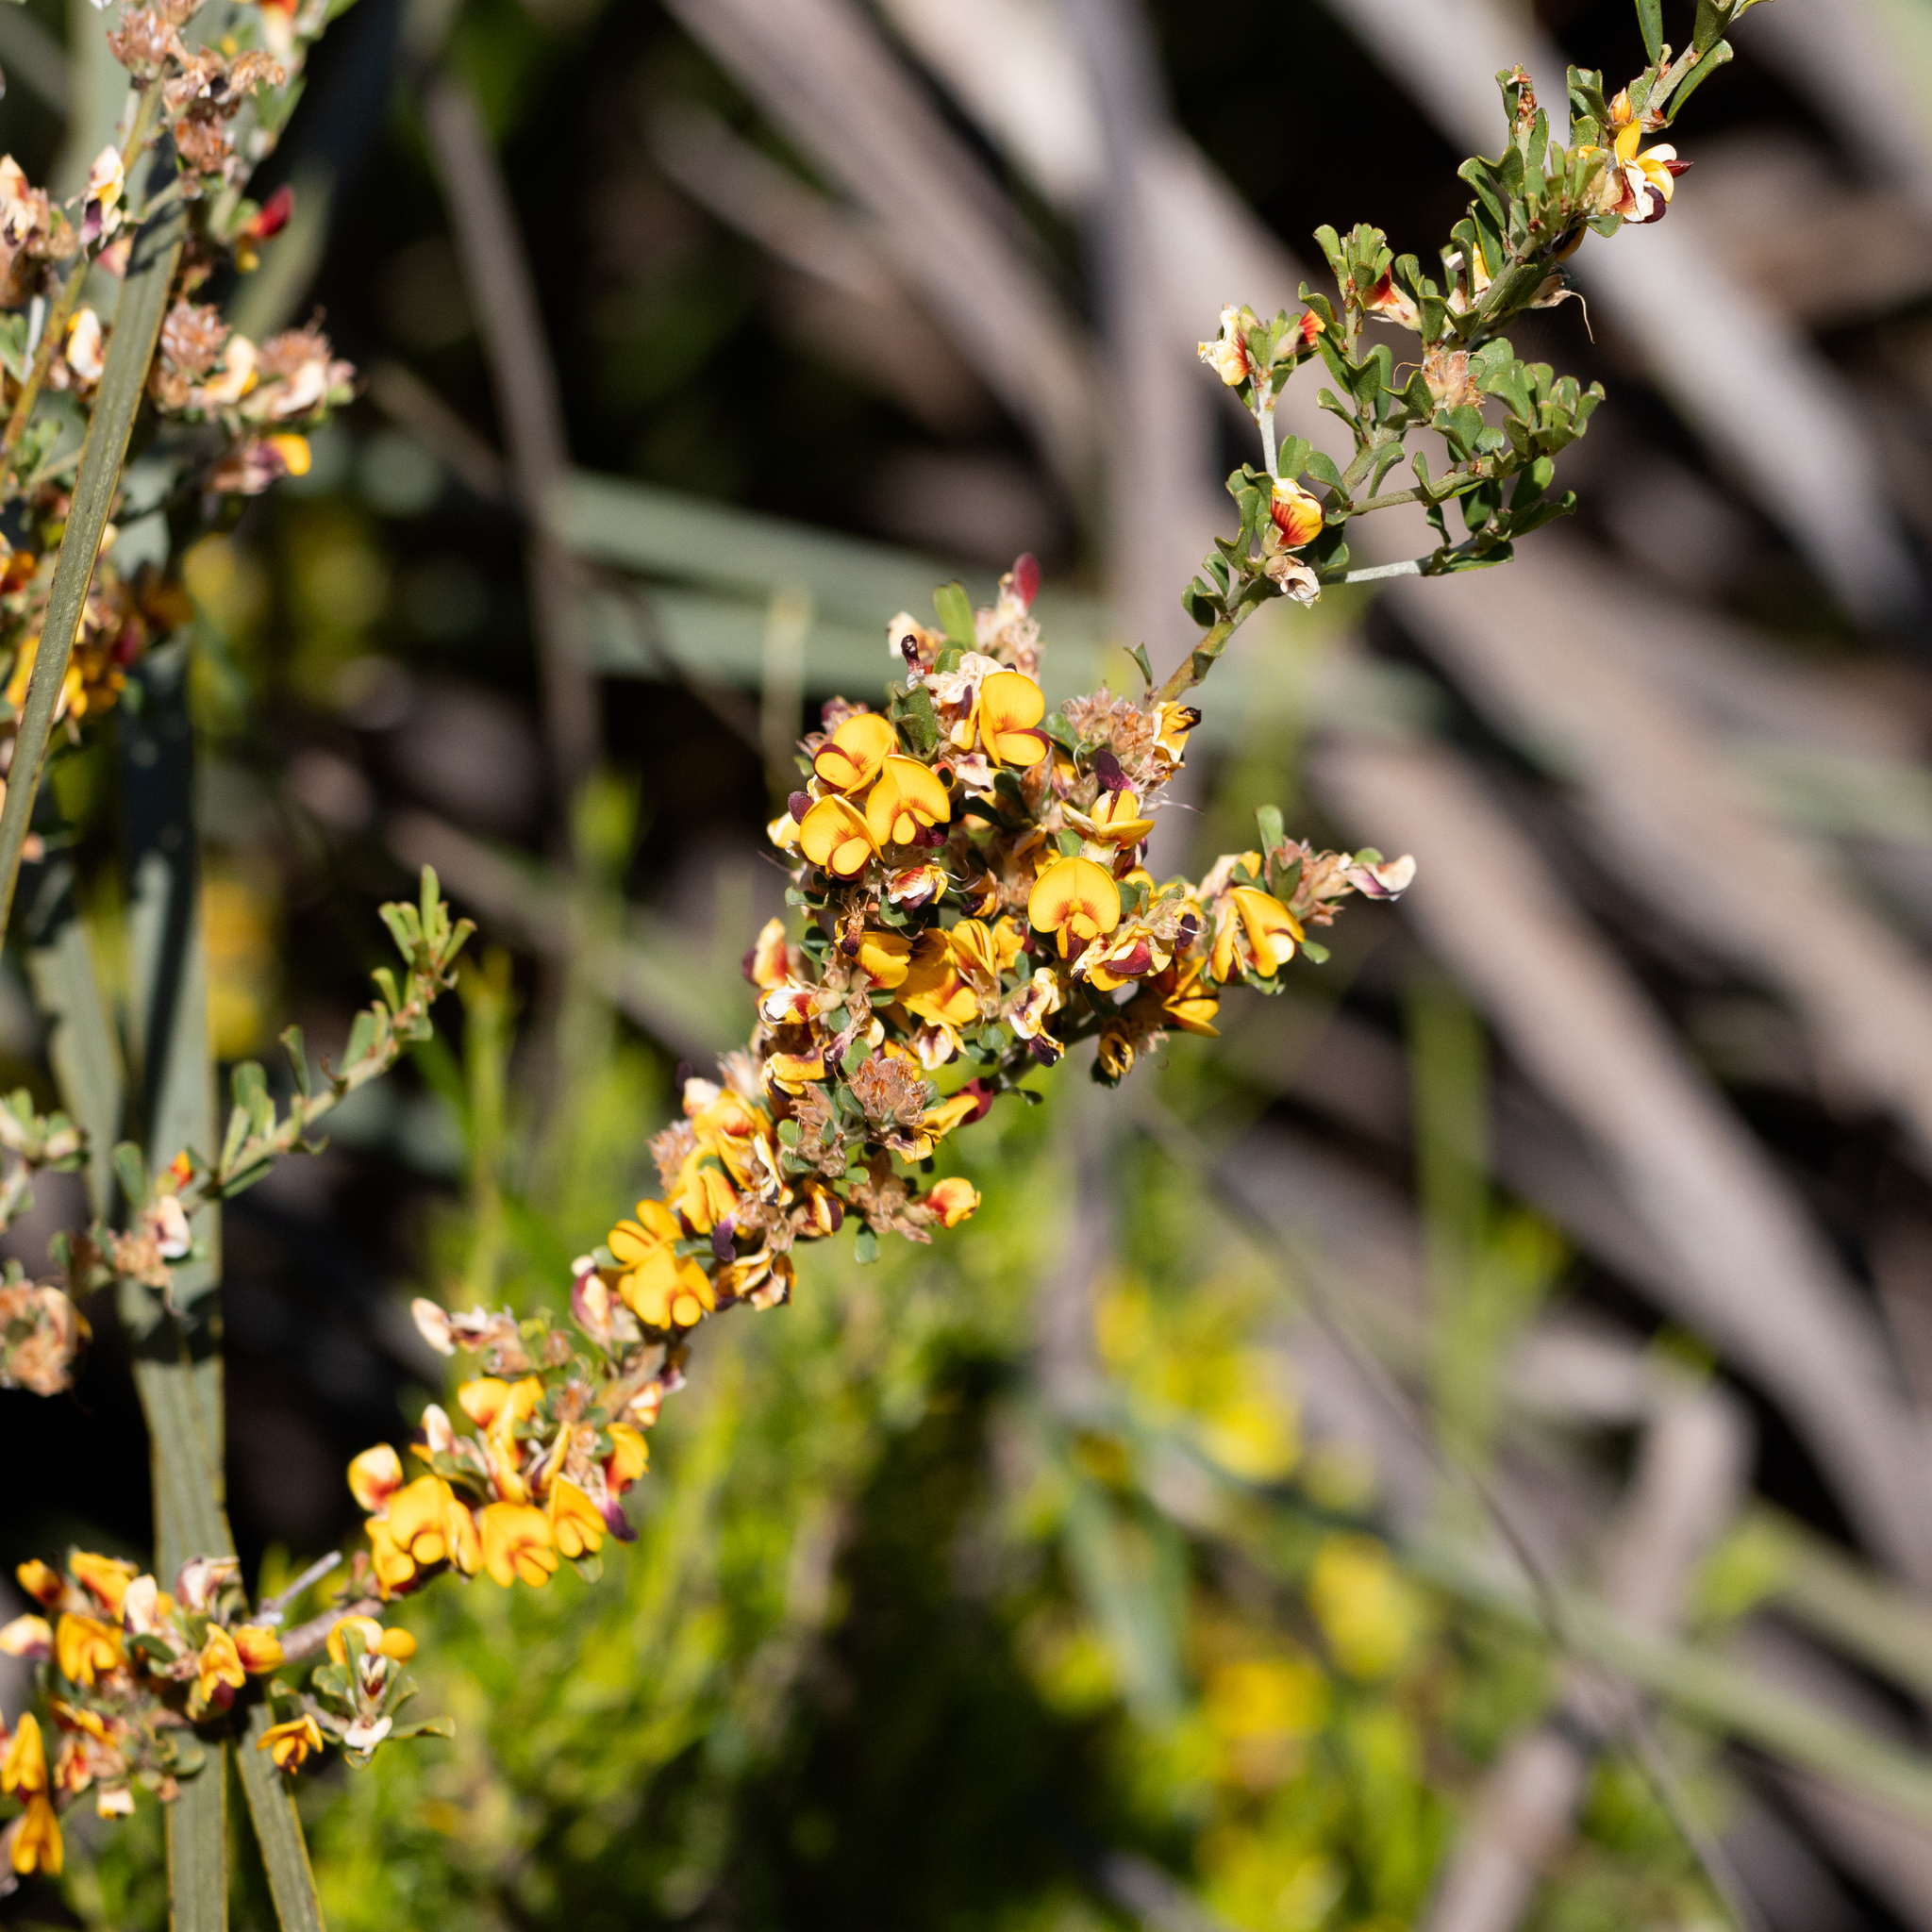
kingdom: Plantae
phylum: Tracheophyta
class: Magnoliopsida
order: Fabales
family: Fabaceae
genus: Pultenaea
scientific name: Pultenaea largiflorens
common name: Twiggy bush-pea
